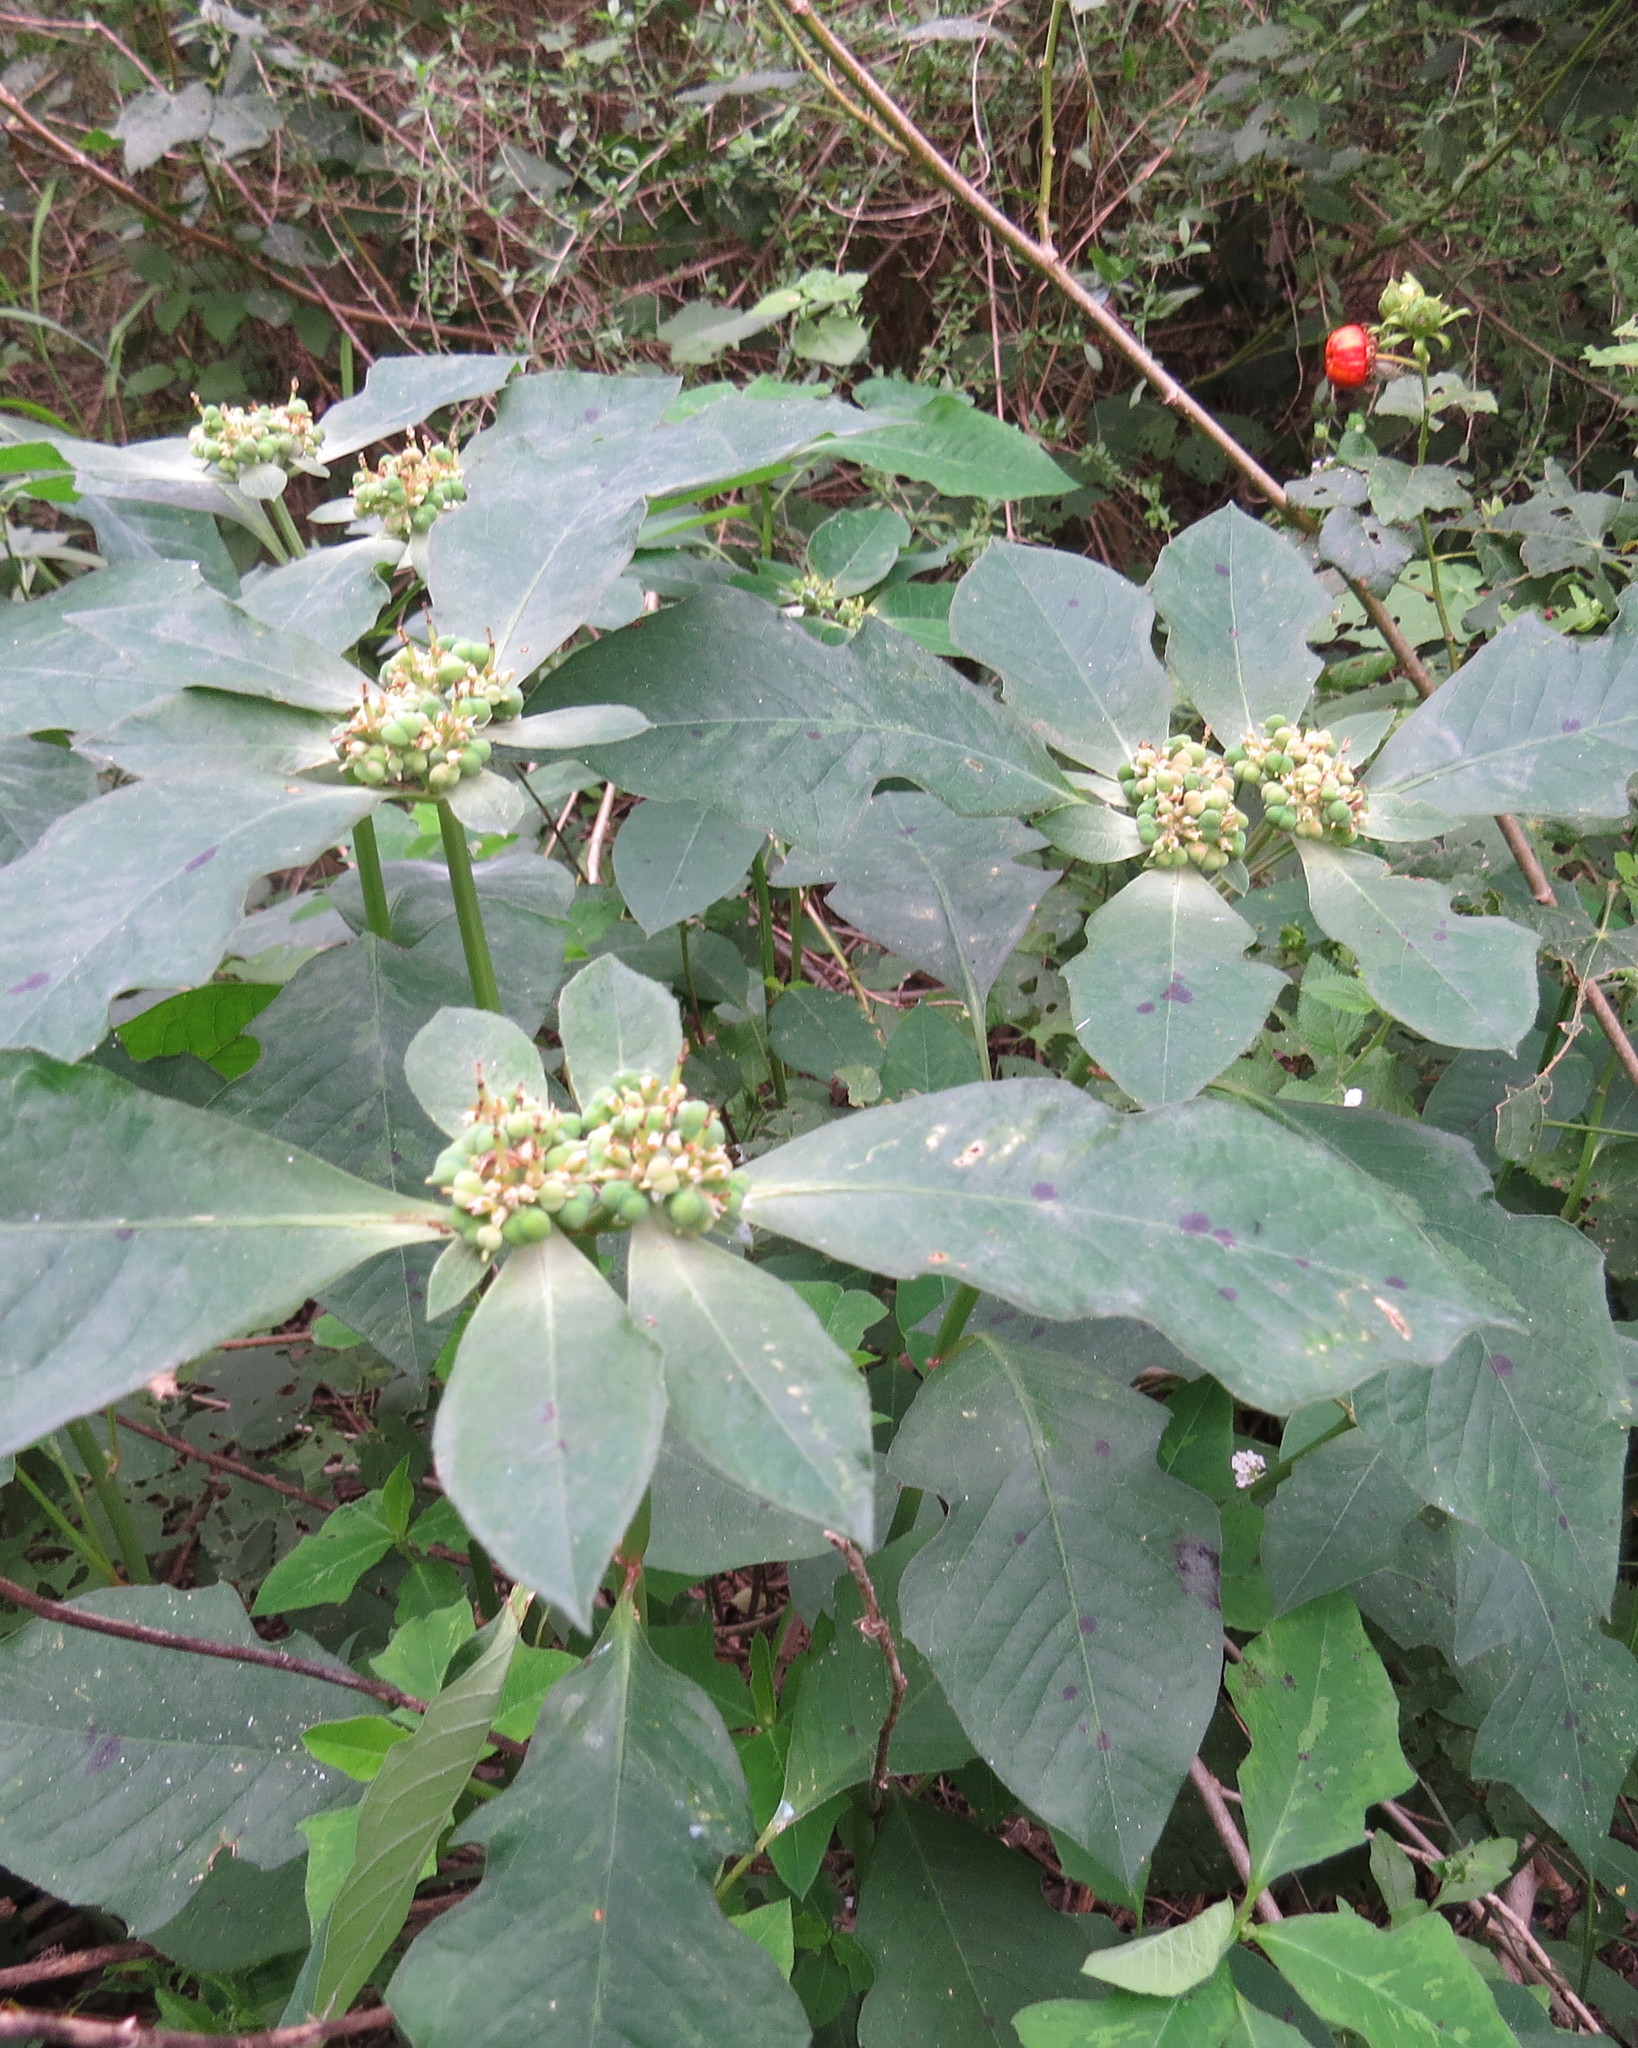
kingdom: Plantae
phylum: Tracheophyta
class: Magnoliopsida
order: Malpighiales
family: Euphorbiaceae
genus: Euphorbia
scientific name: Euphorbia heterophylla
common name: Mexican fireplant
